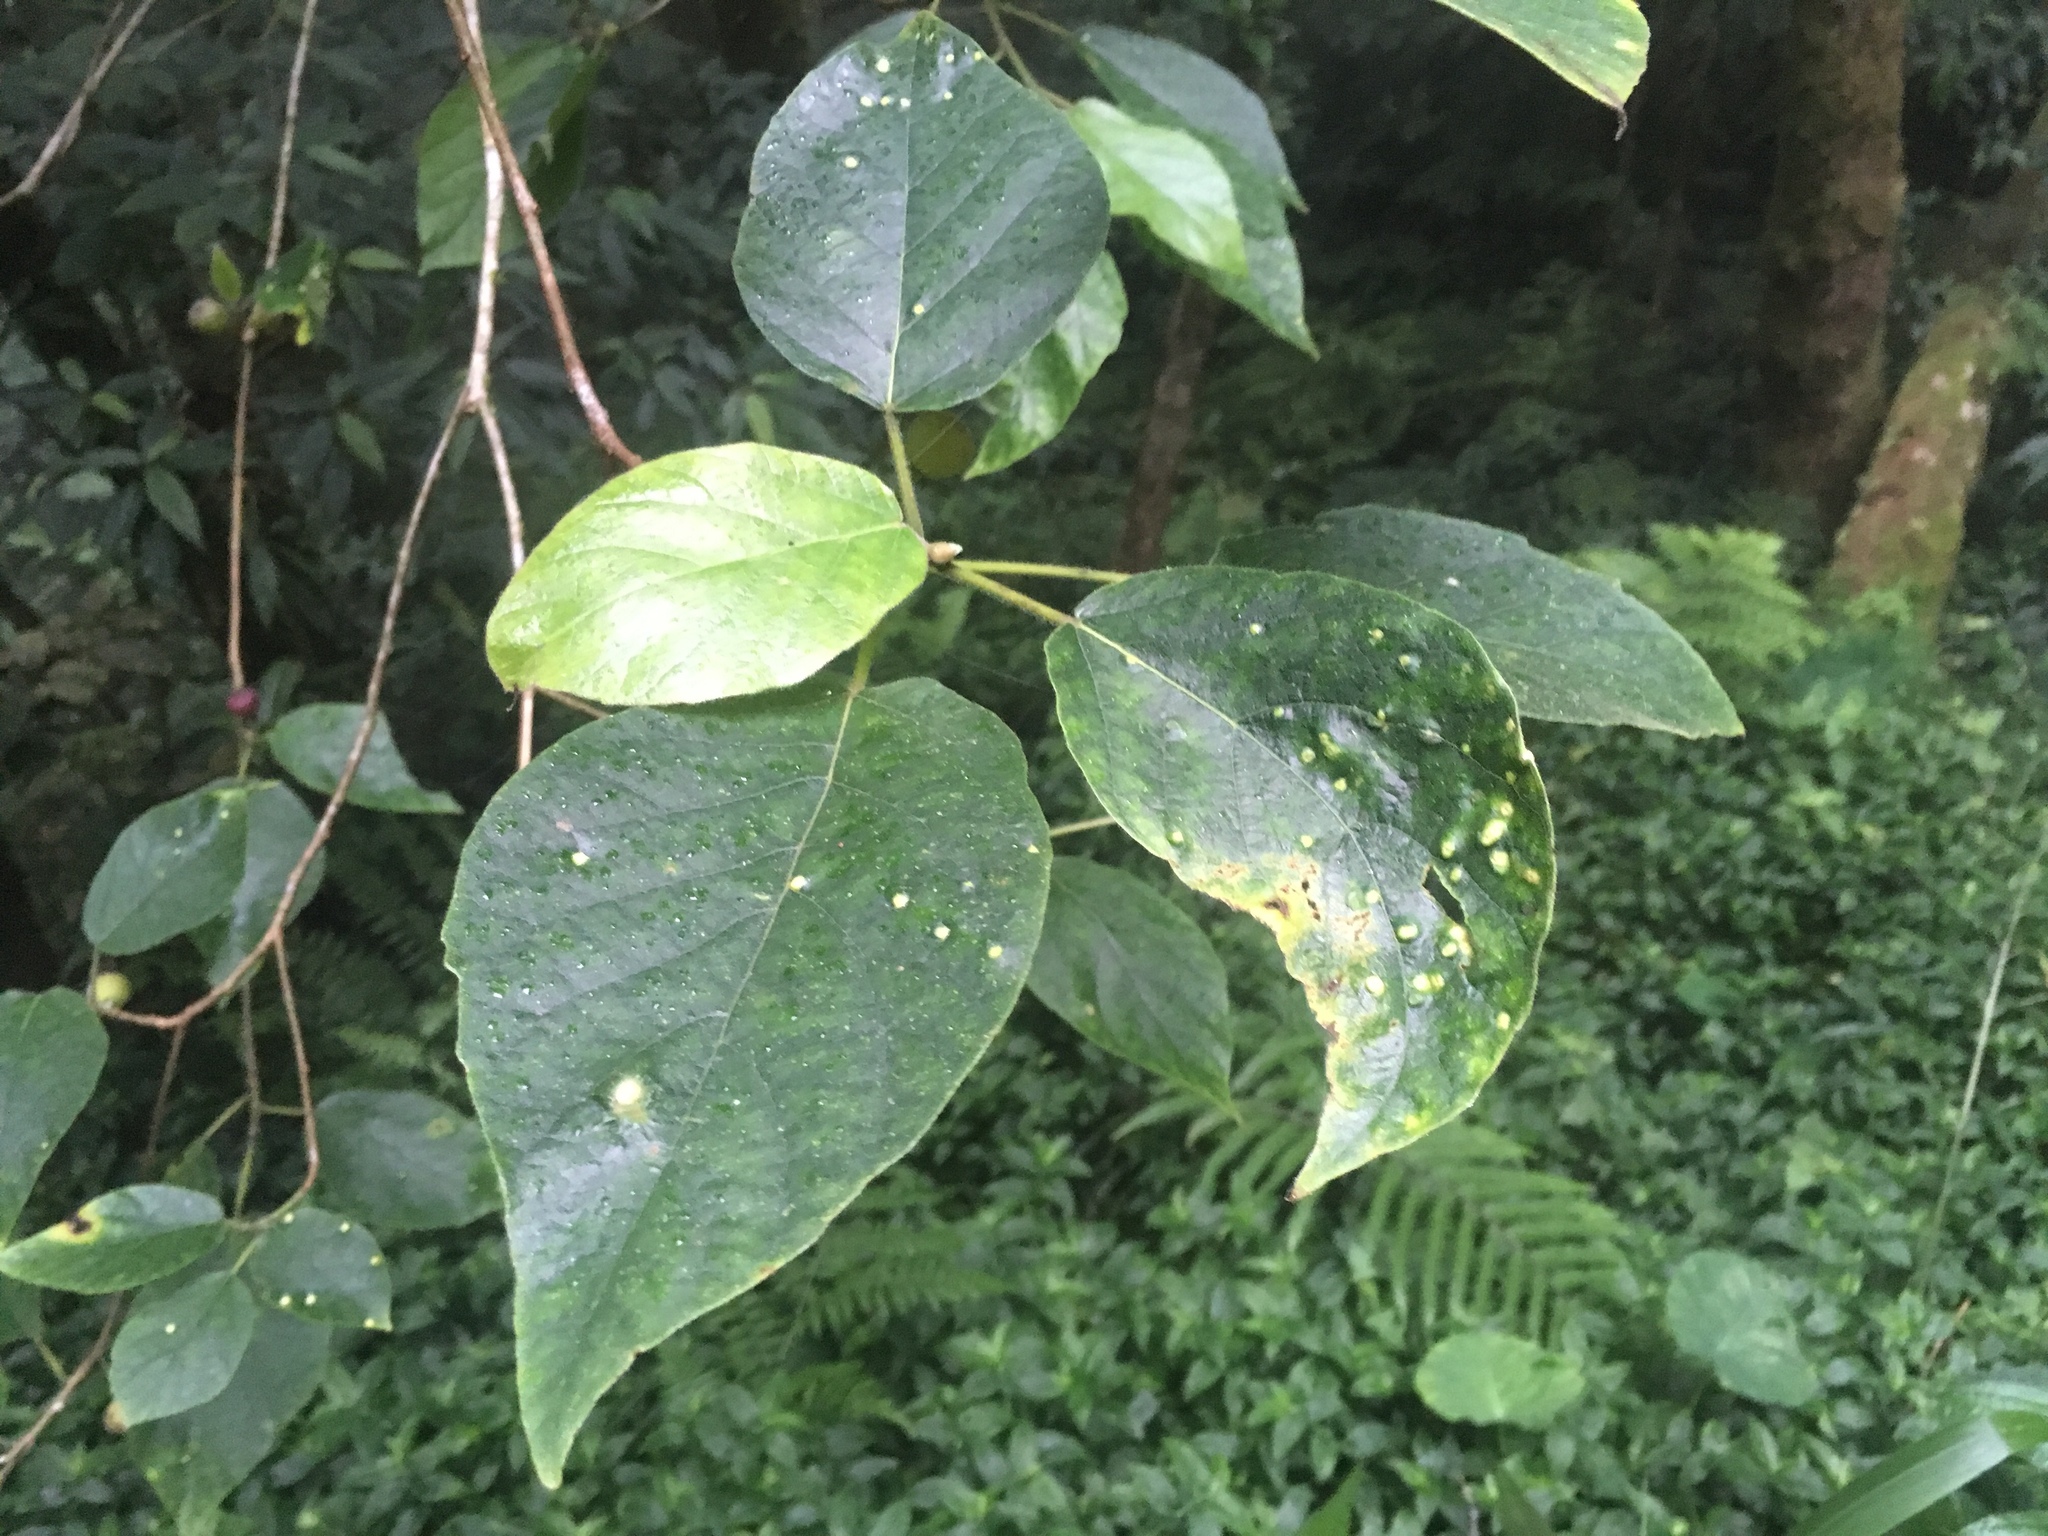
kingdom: Plantae
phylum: Tracheophyta
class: Magnoliopsida
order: Rosales
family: Moraceae
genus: Ficus
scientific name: Ficus erecta
